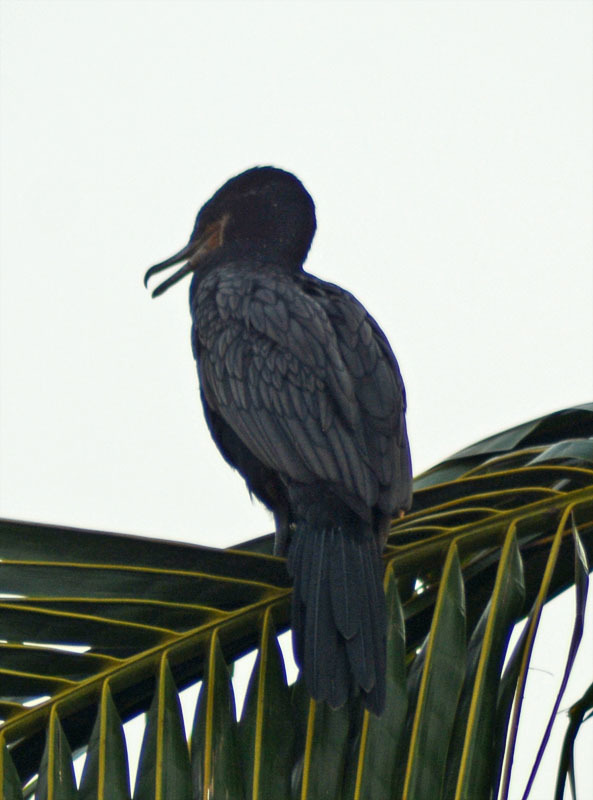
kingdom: Animalia
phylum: Chordata
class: Aves
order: Suliformes
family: Phalacrocoracidae
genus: Phalacrocorax
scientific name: Phalacrocorax brasilianus
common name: Neotropic cormorant
